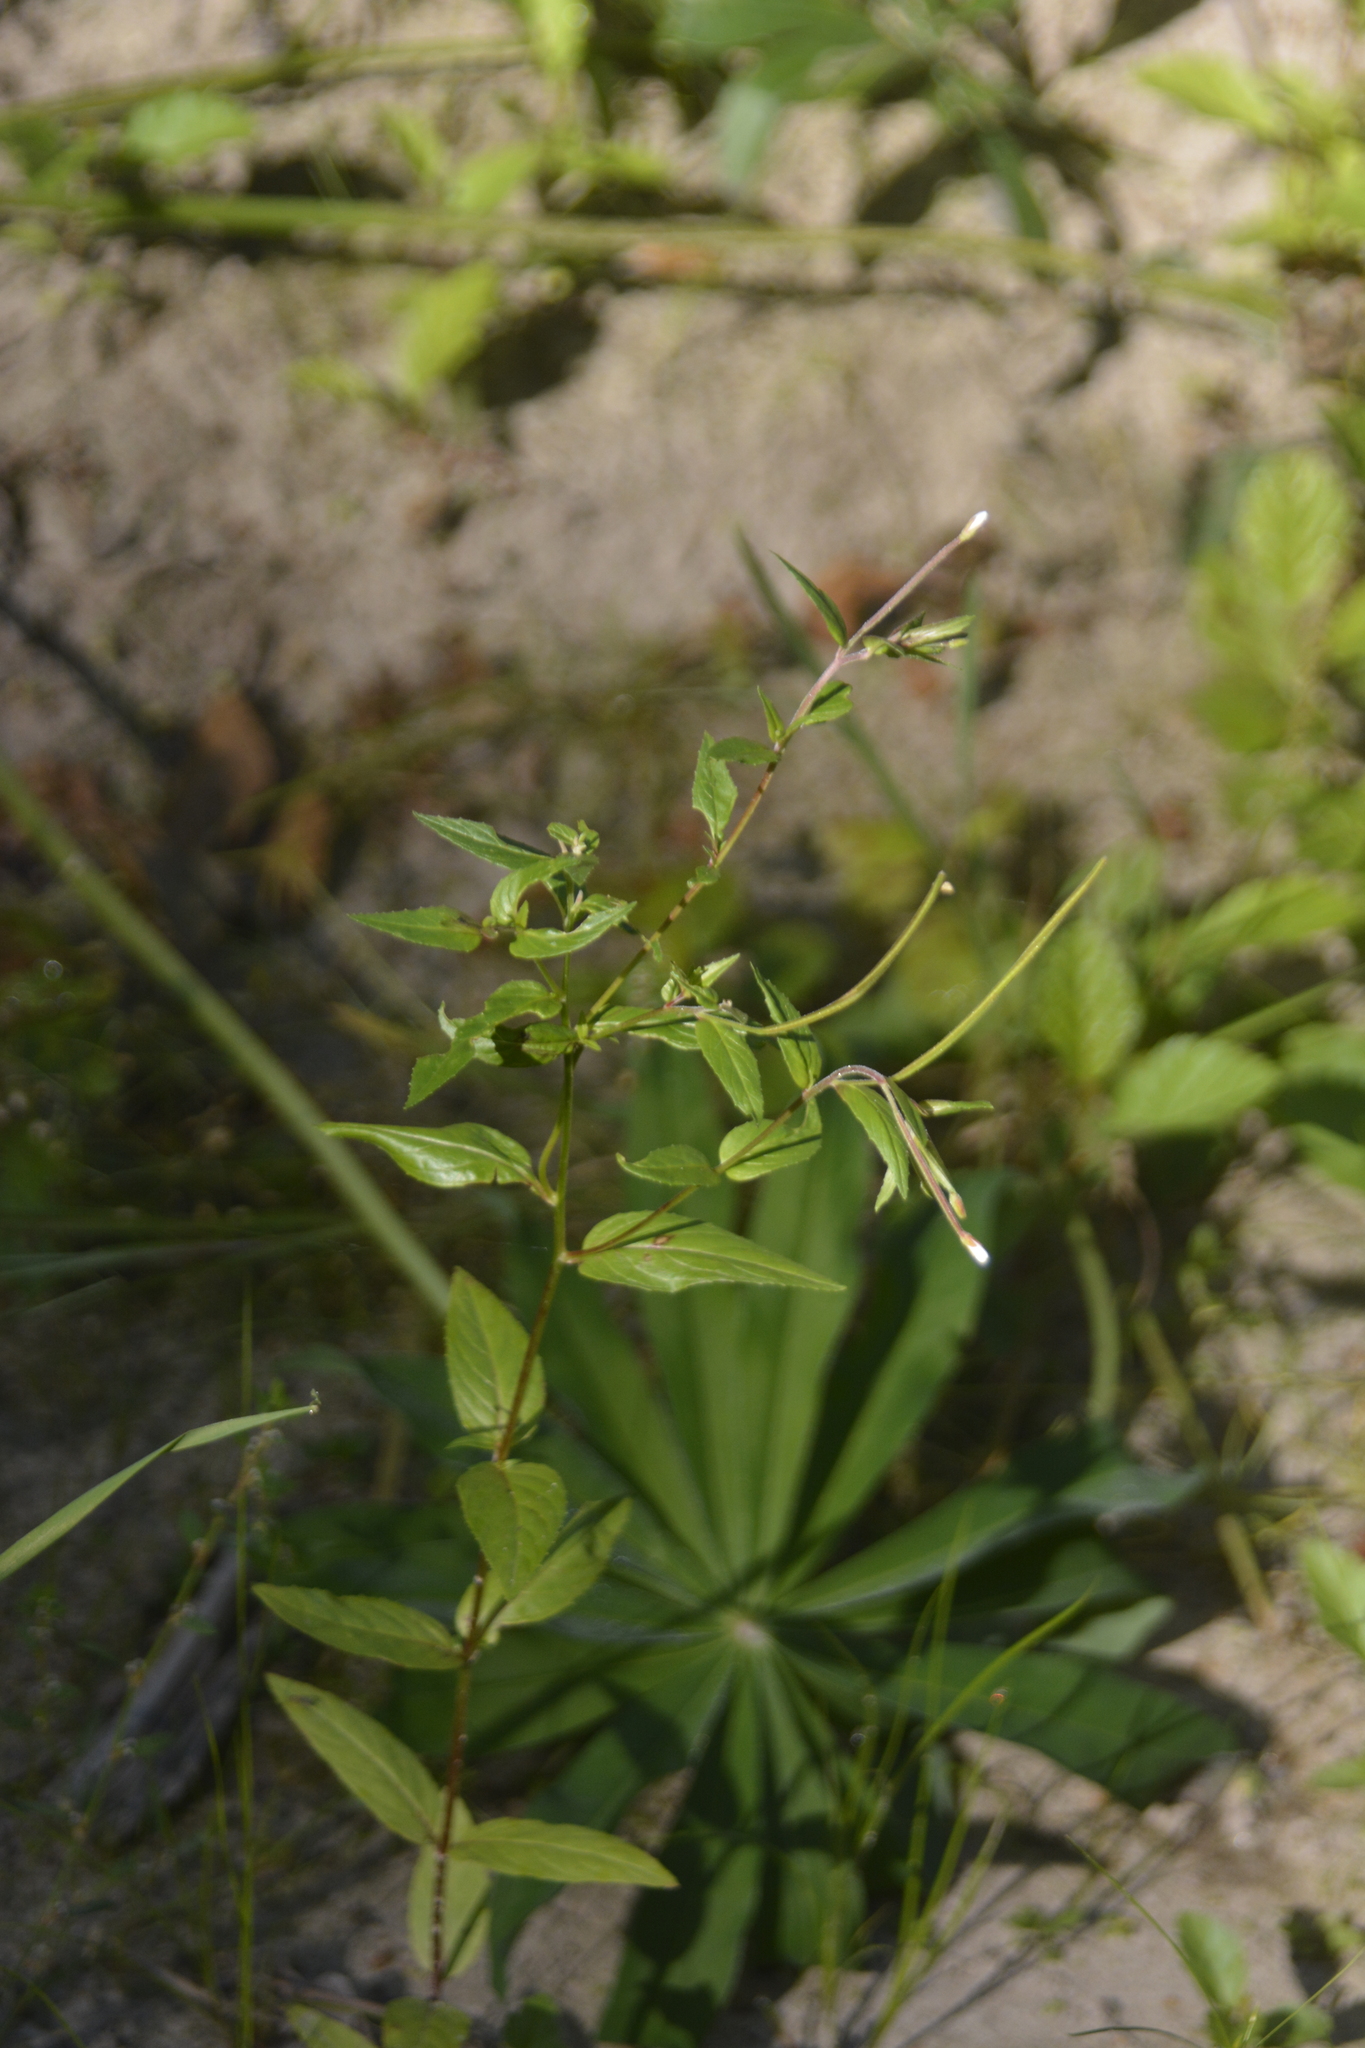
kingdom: Plantae
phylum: Tracheophyta
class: Magnoliopsida
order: Myrtales
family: Onagraceae
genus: Epilobium
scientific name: Epilobium pseudorubescens
